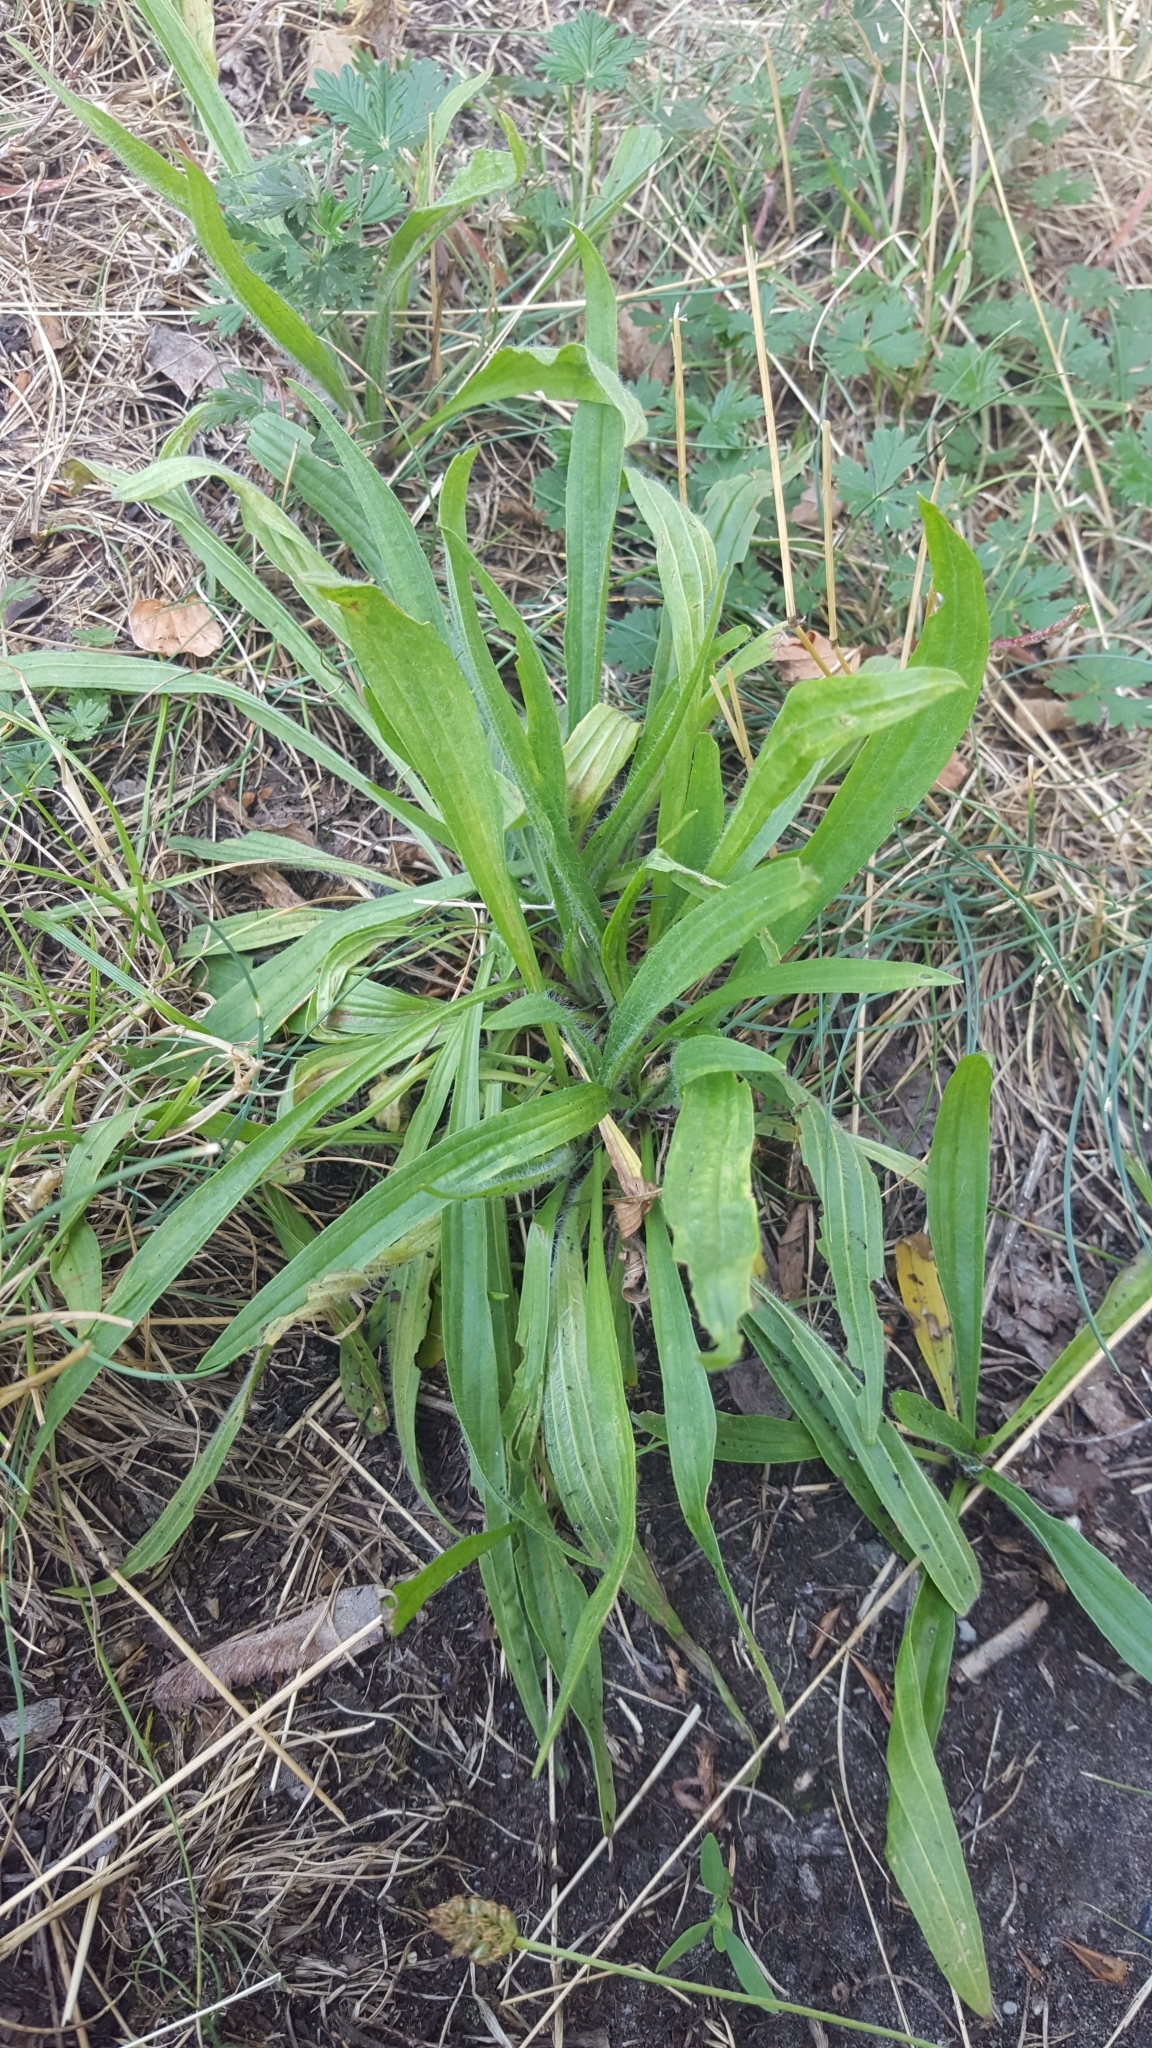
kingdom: Plantae
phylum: Tracheophyta
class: Magnoliopsida
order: Lamiales
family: Plantaginaceae
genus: Plantago
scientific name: Plantago lanceolata
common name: Ribwort plantain
